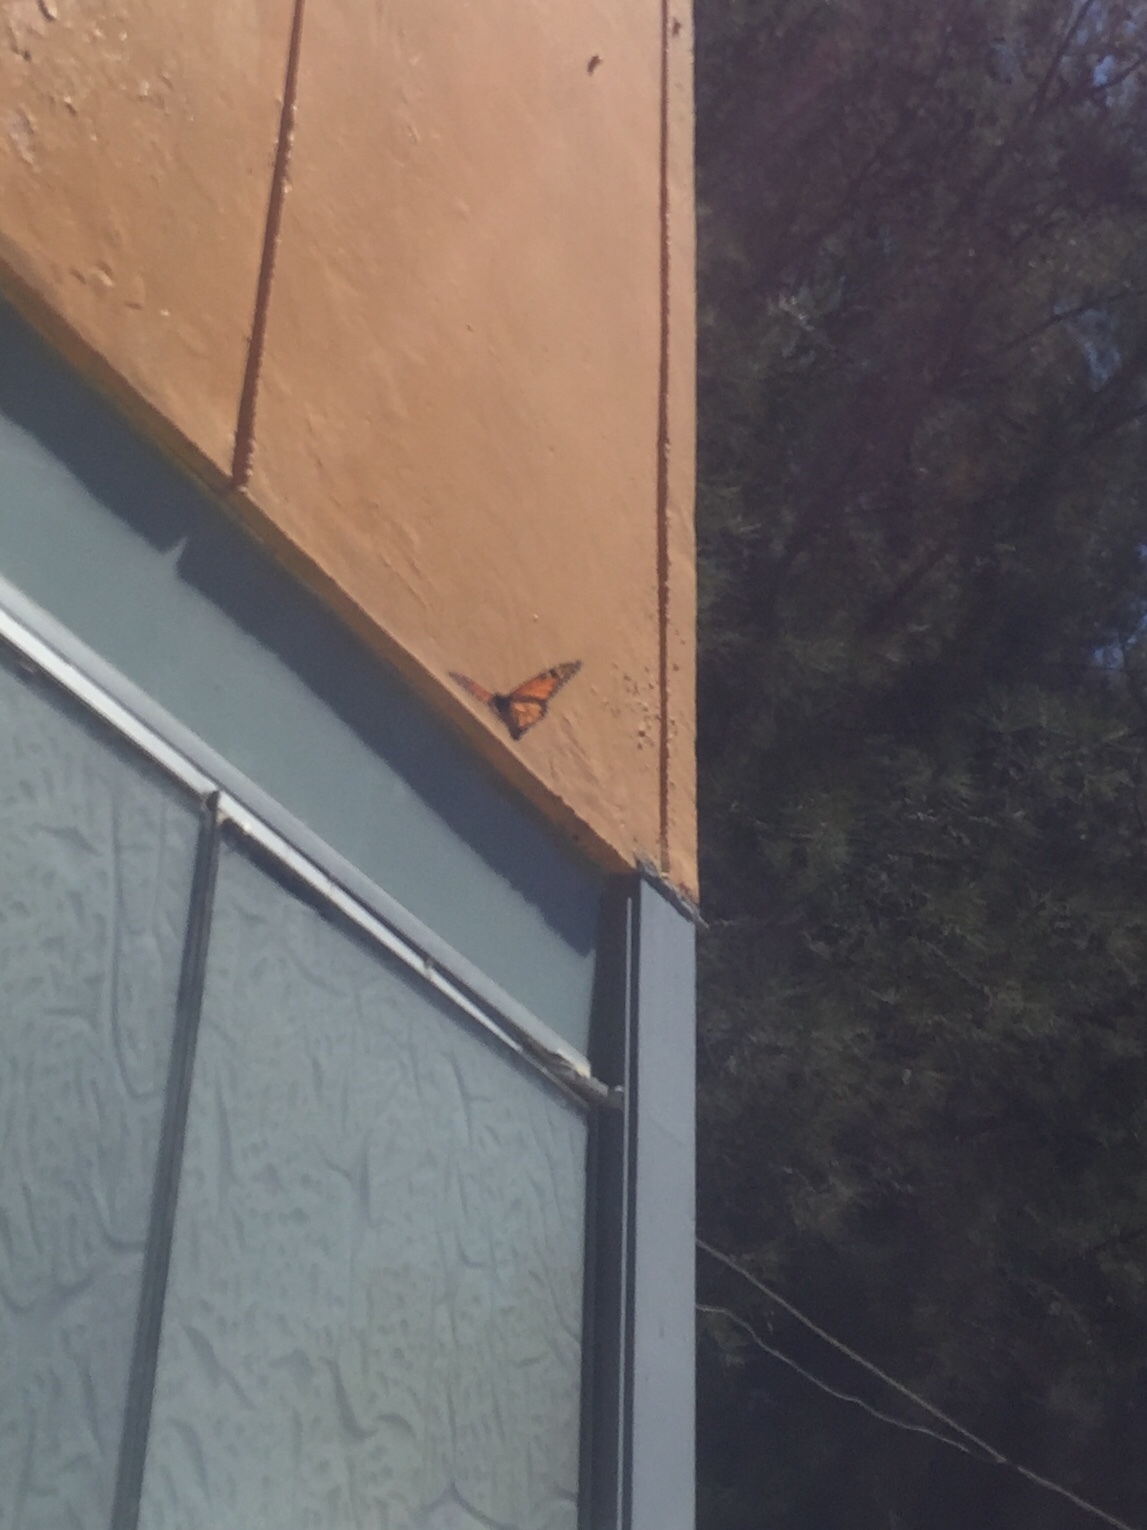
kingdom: Animalia
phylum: Arthropoda
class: Insecta
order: Lepidoptera
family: Nymphalidae
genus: Danaus
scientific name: Danaus plexippus
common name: Monarch
